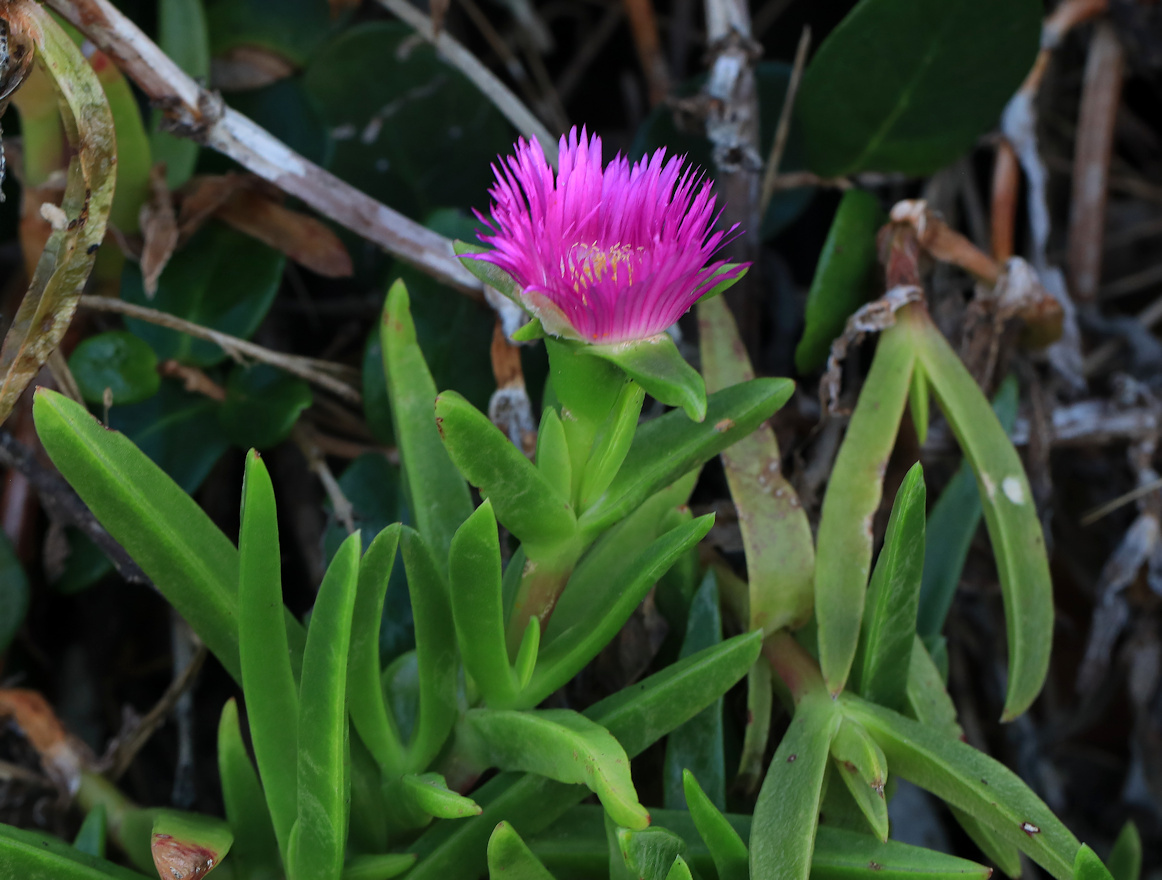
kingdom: Plantae
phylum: Tracheophyta
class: Magnoliopsida
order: Caryophyllales
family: Aizoaceae
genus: Carpobrotus
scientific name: Carpobrotus dimidiatus
